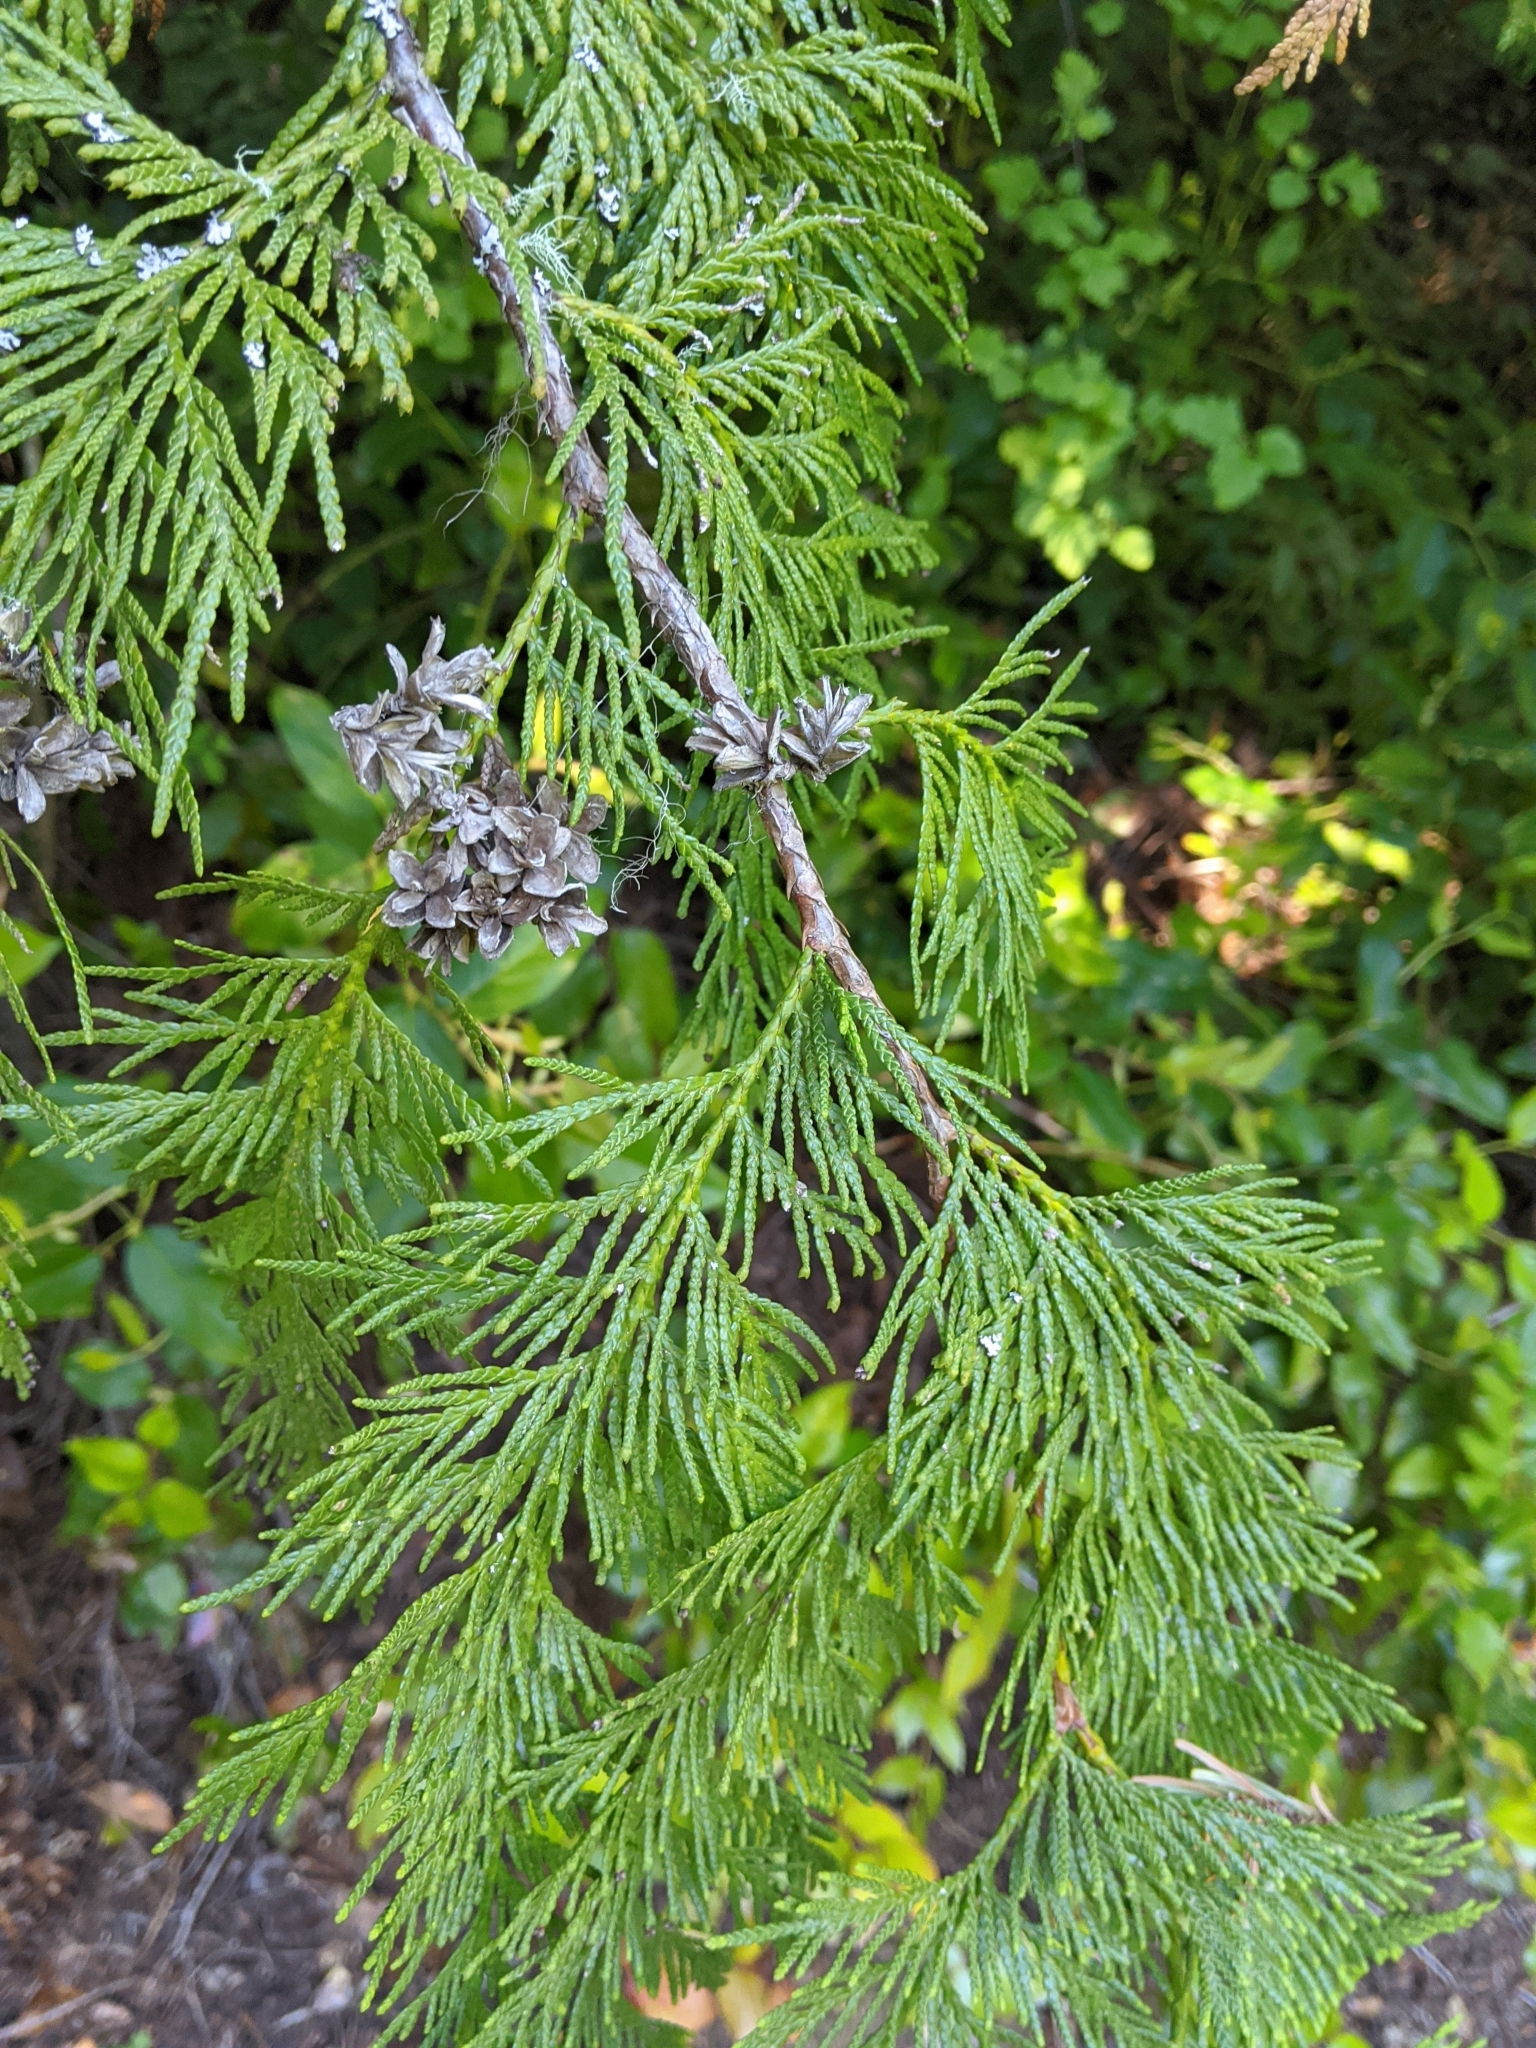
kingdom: Plantae
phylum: Tracheophyta
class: Pinopsida
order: Pinales
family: Cupressaceae
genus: Thuja
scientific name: Thuja plicata
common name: Western red-cedar
